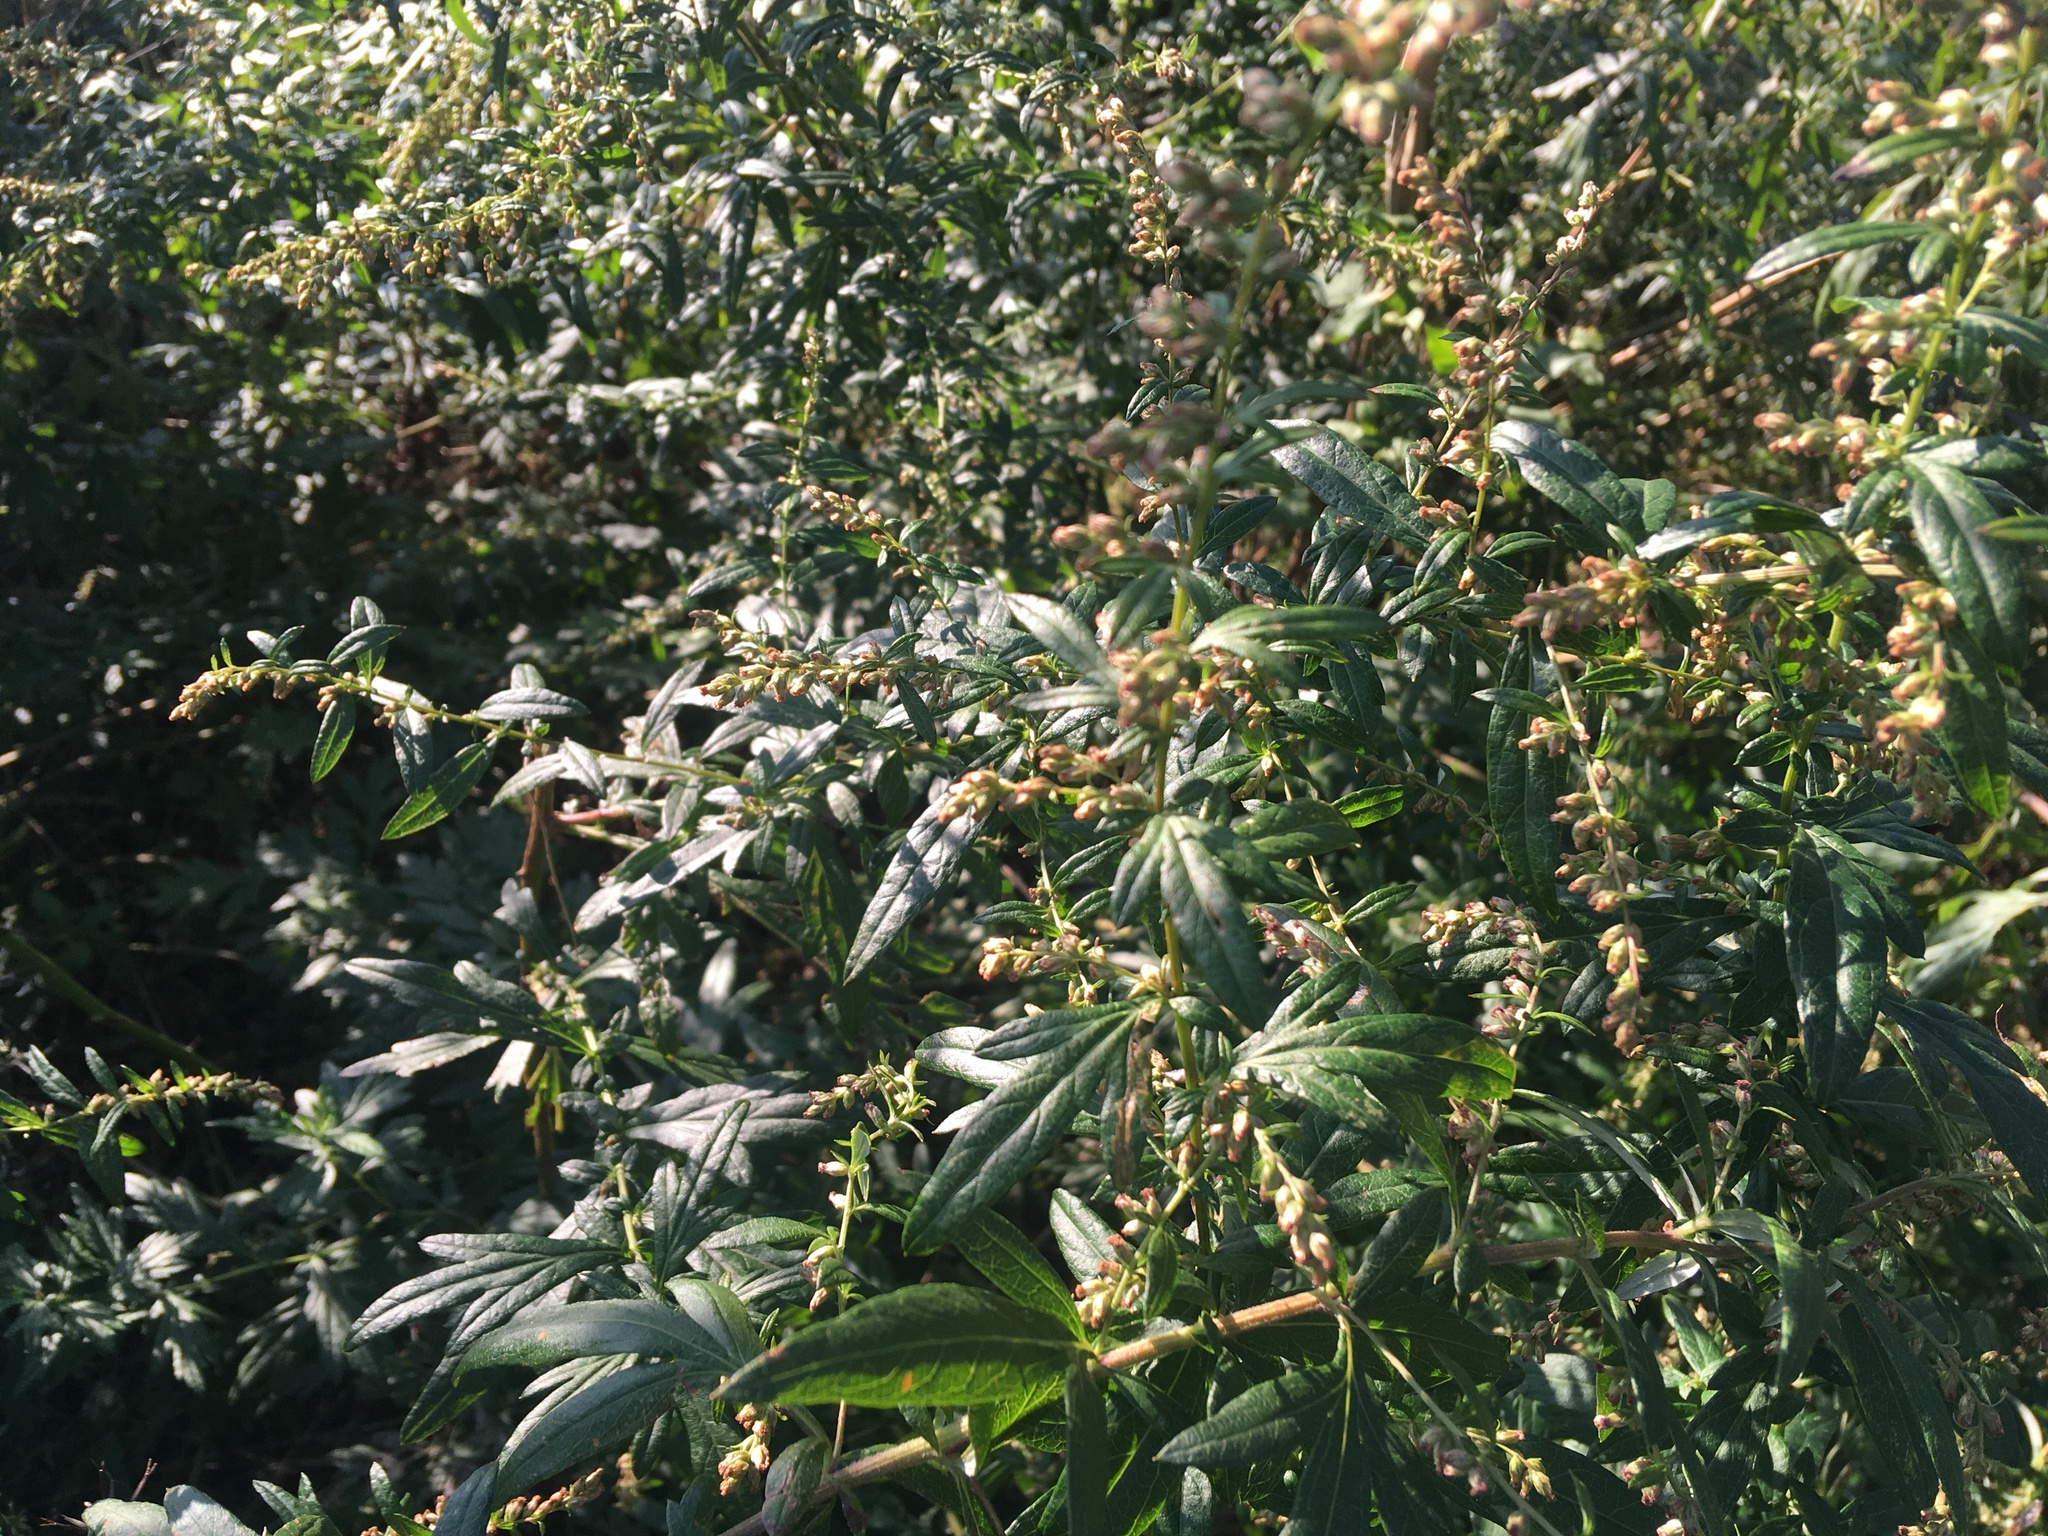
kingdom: Plantae
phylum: Tracheophyta
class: Magnoliopsida
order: Asterales
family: Asteraceae
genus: Artemisia
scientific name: Artemisia vulgaris
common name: Mugwort
